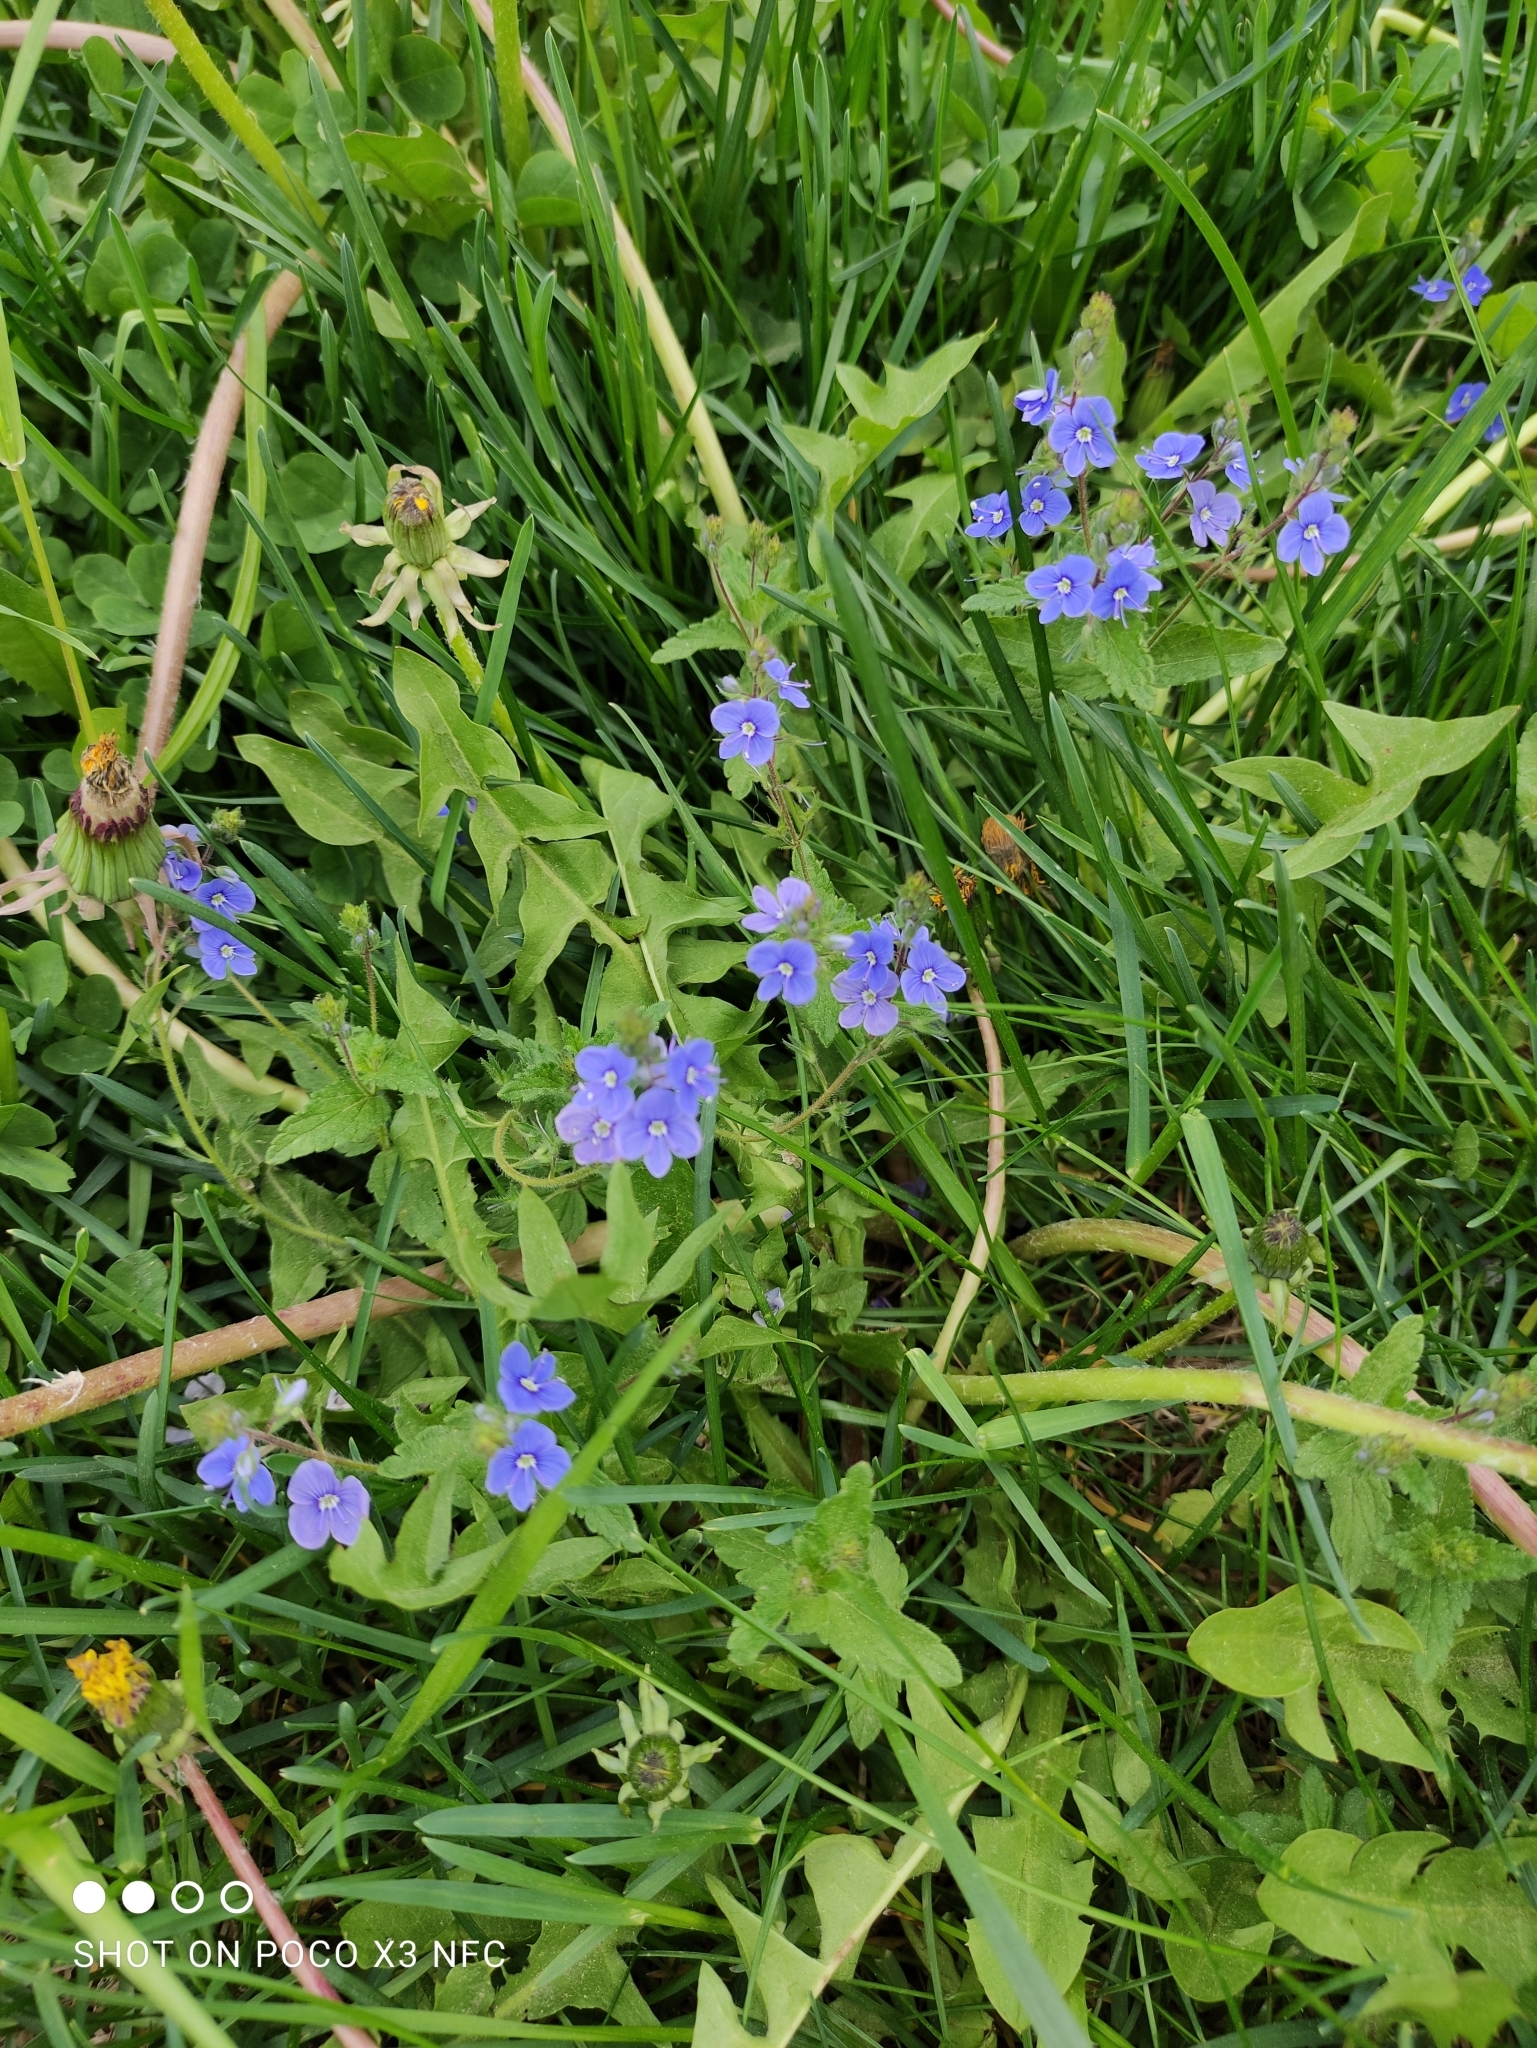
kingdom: Plantae
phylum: Tracheophyta
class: Magnoliopsida
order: Lamiales
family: Plantaginaceae
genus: Veronica
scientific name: Veronica chamaedrys
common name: Germander speedwell
